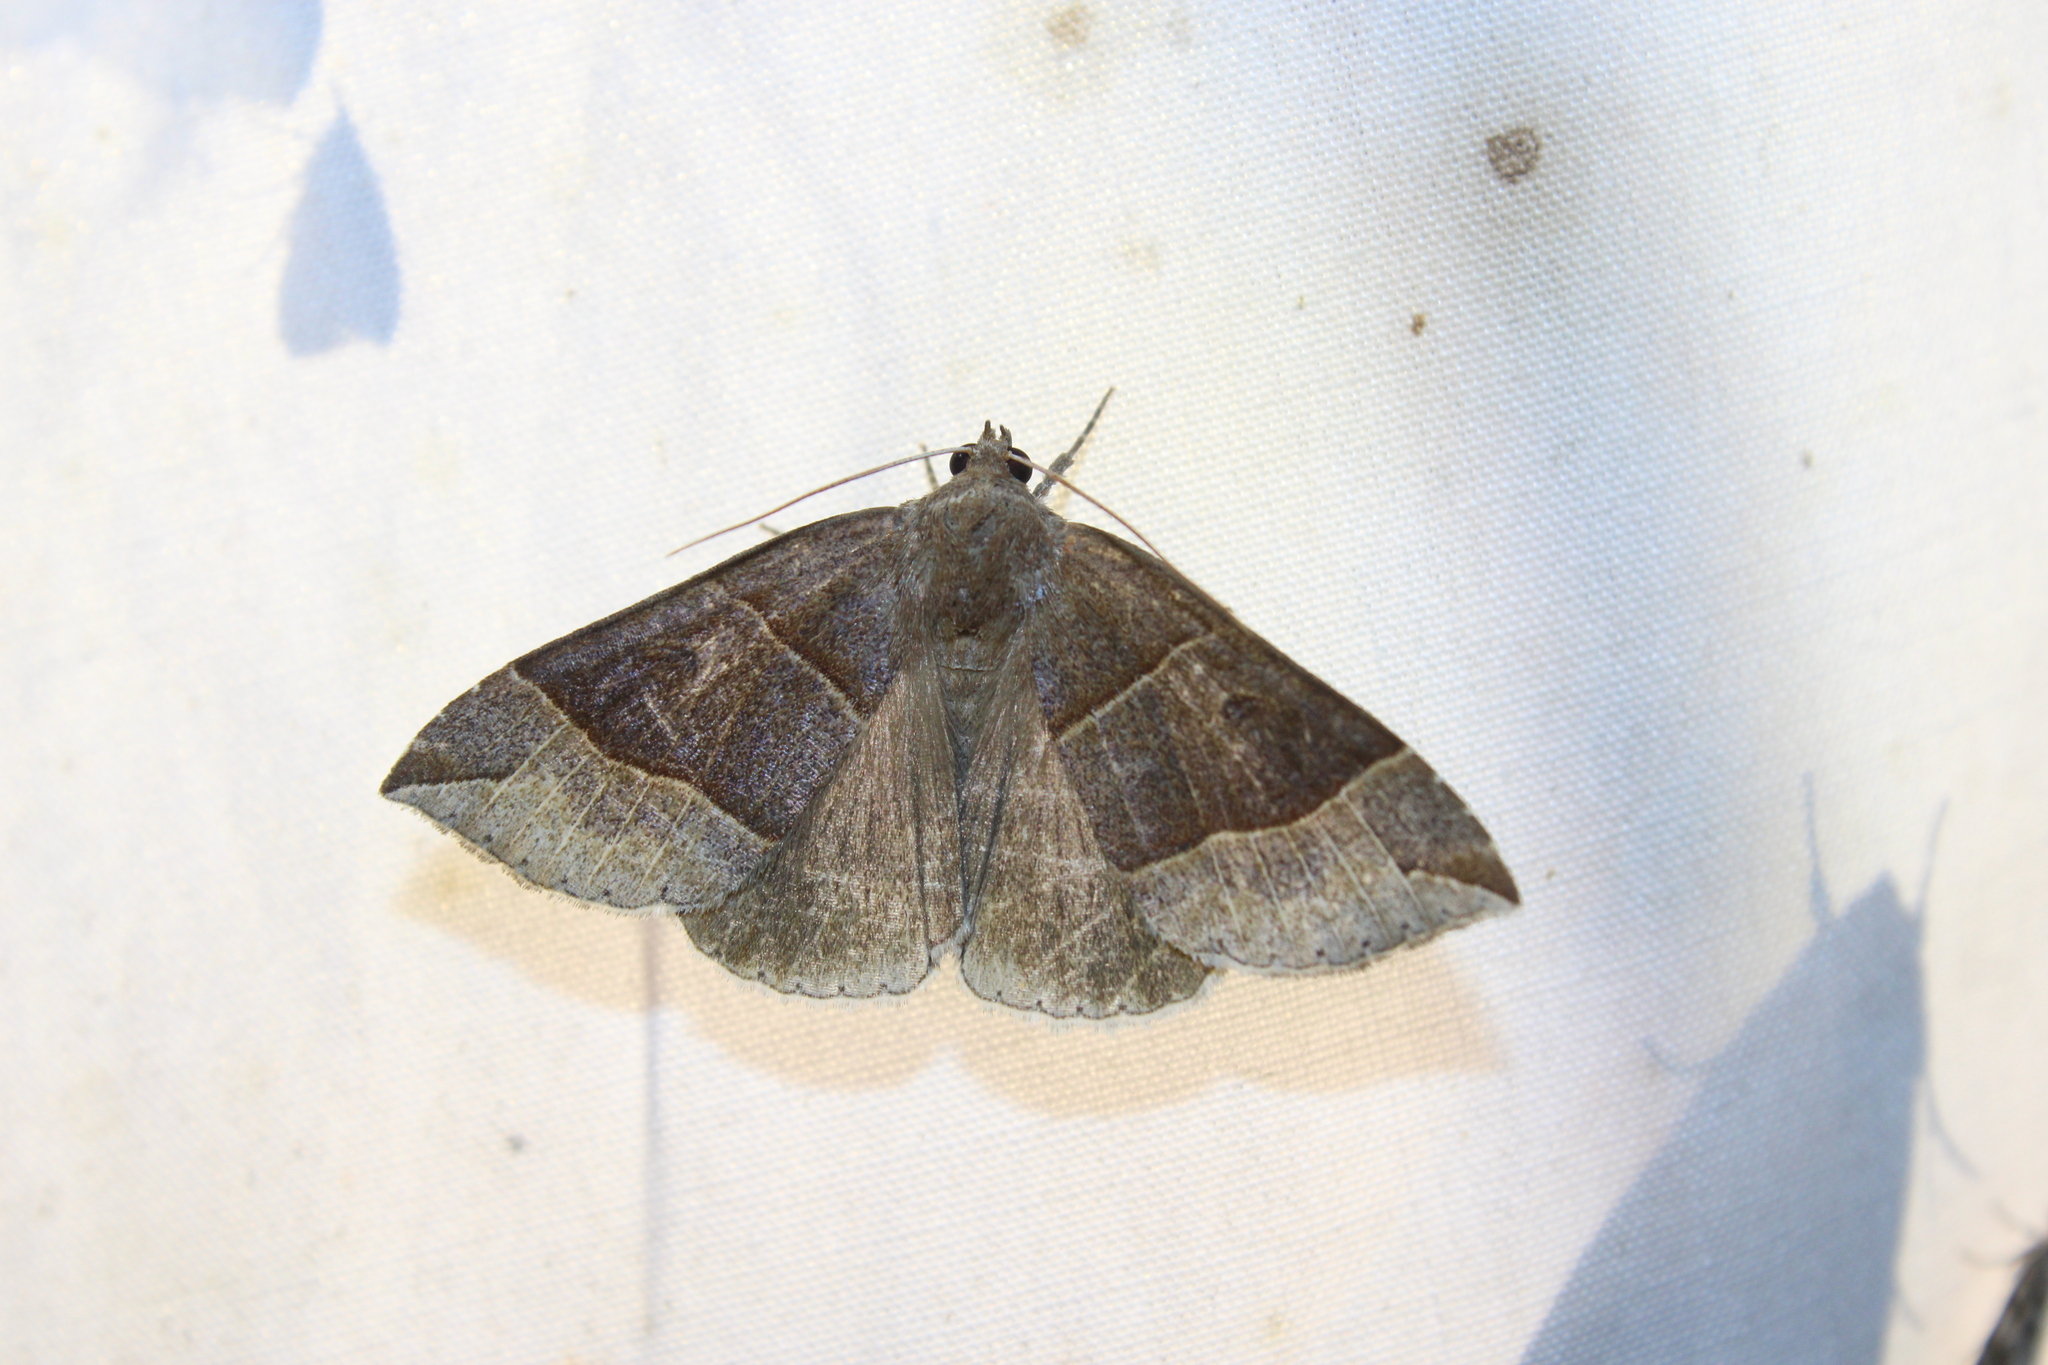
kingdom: Animalia
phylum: Arthropoda
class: Insecta
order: Lepidoptera
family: Erebidae
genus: Parallelia
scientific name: Parallelia bistriaris
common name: Maple looper moth
